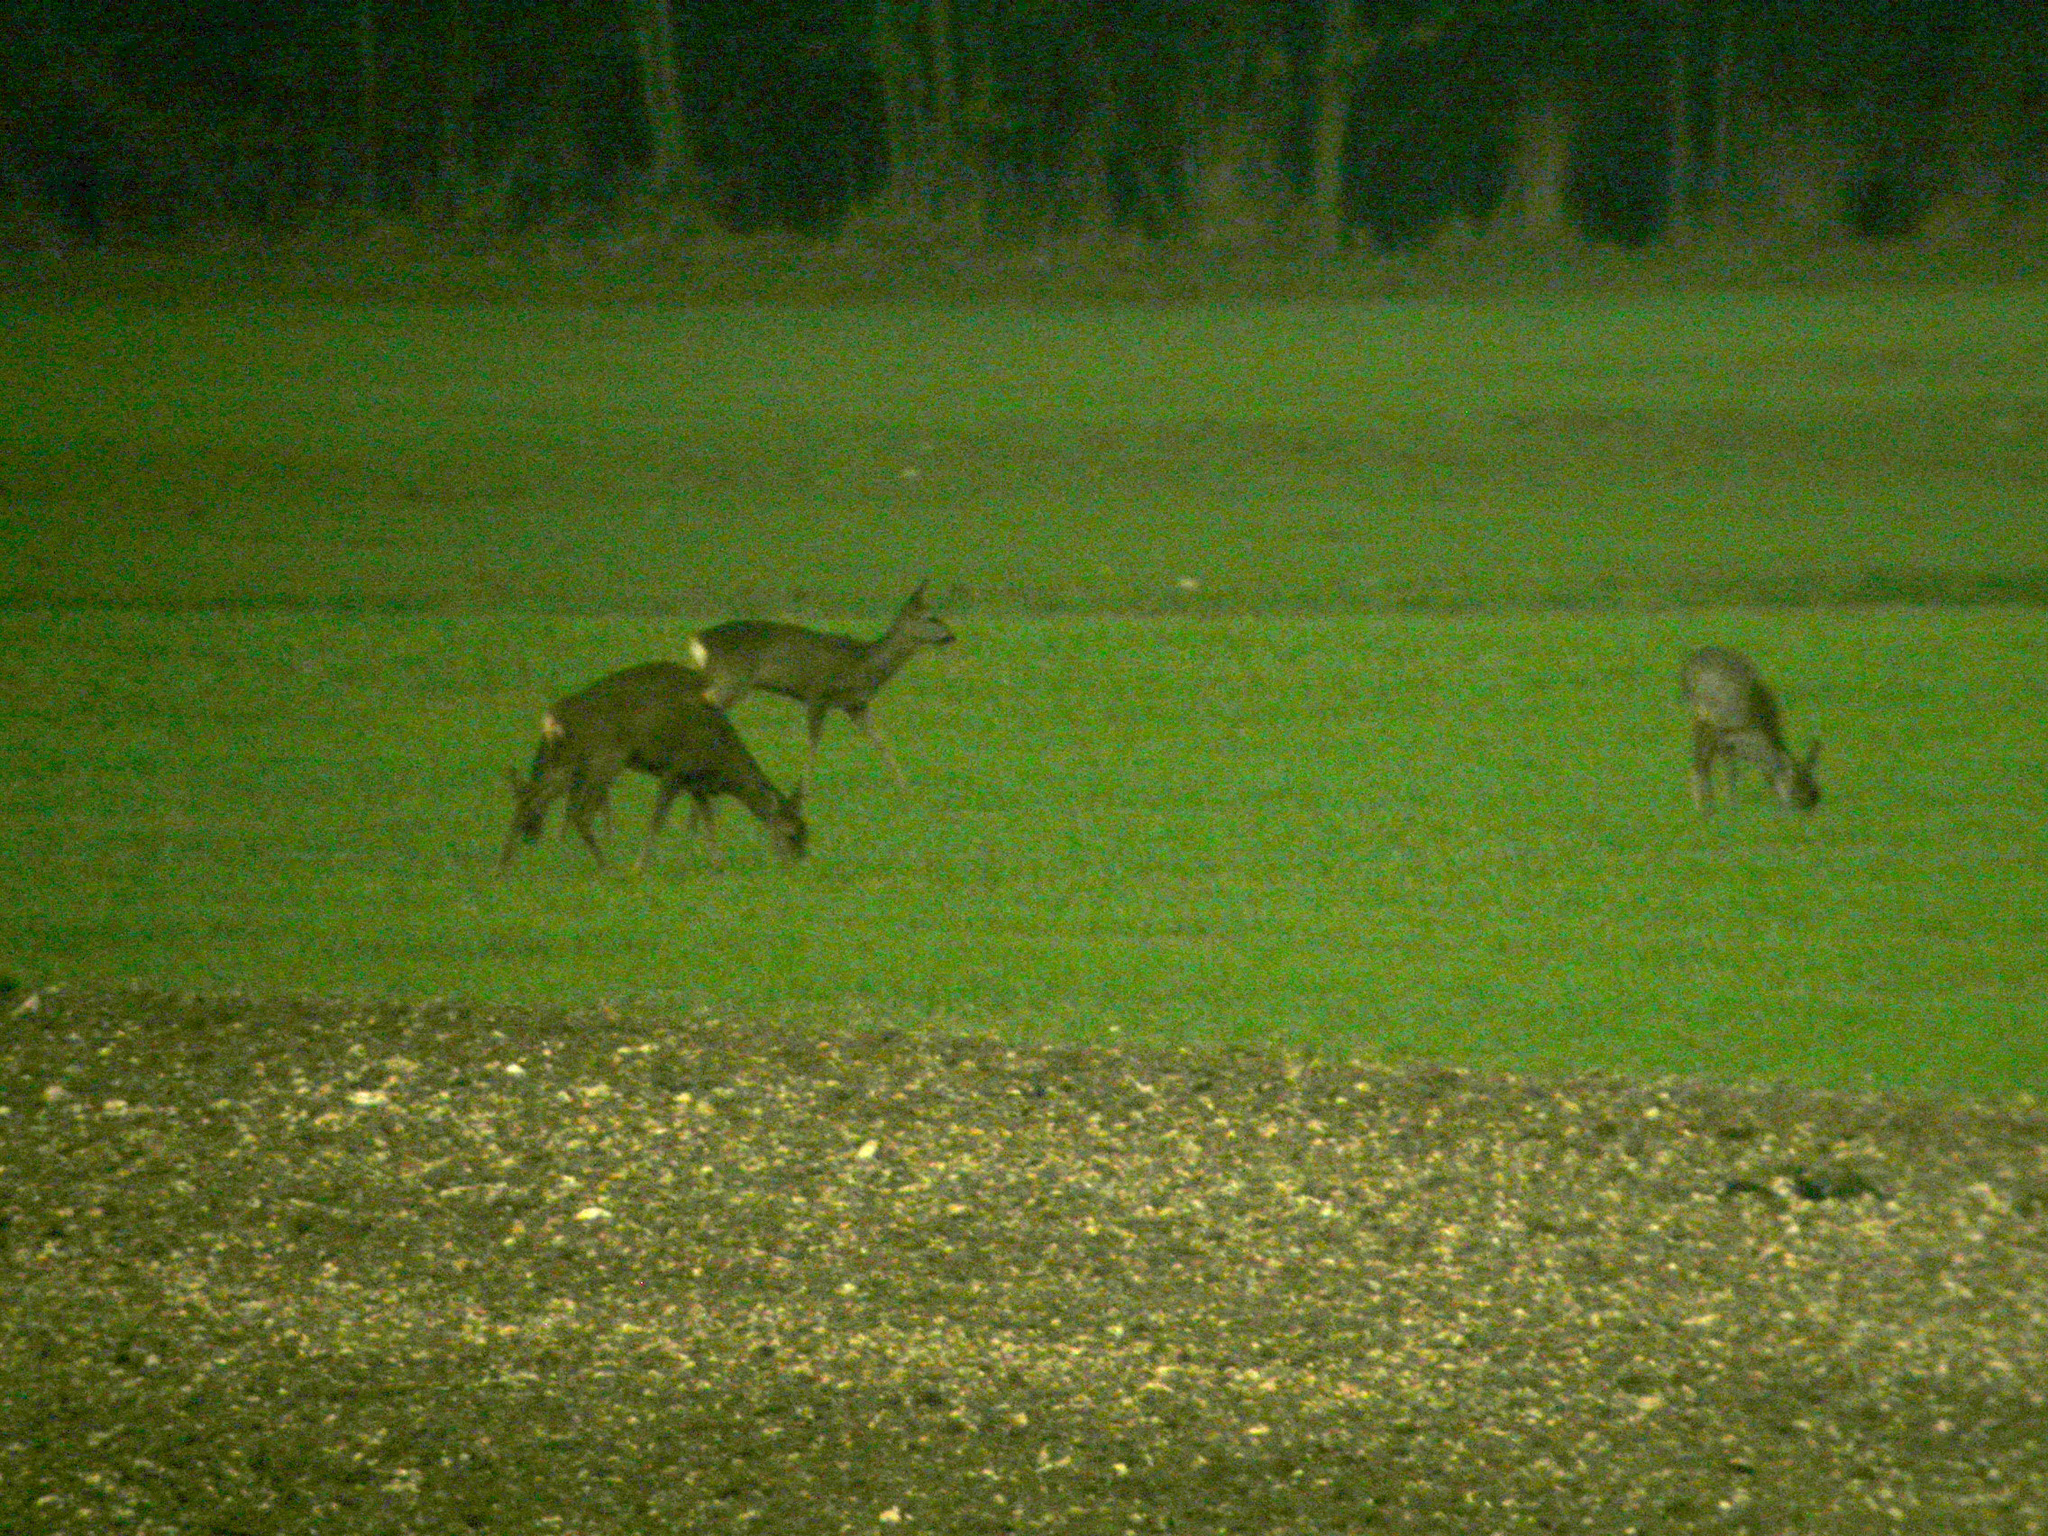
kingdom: Animalia
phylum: Chordata
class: Mammalia
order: Artiodactyla
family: Cervidae
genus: Capreolus
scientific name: Capreolus capreolus
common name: Western roe deer
